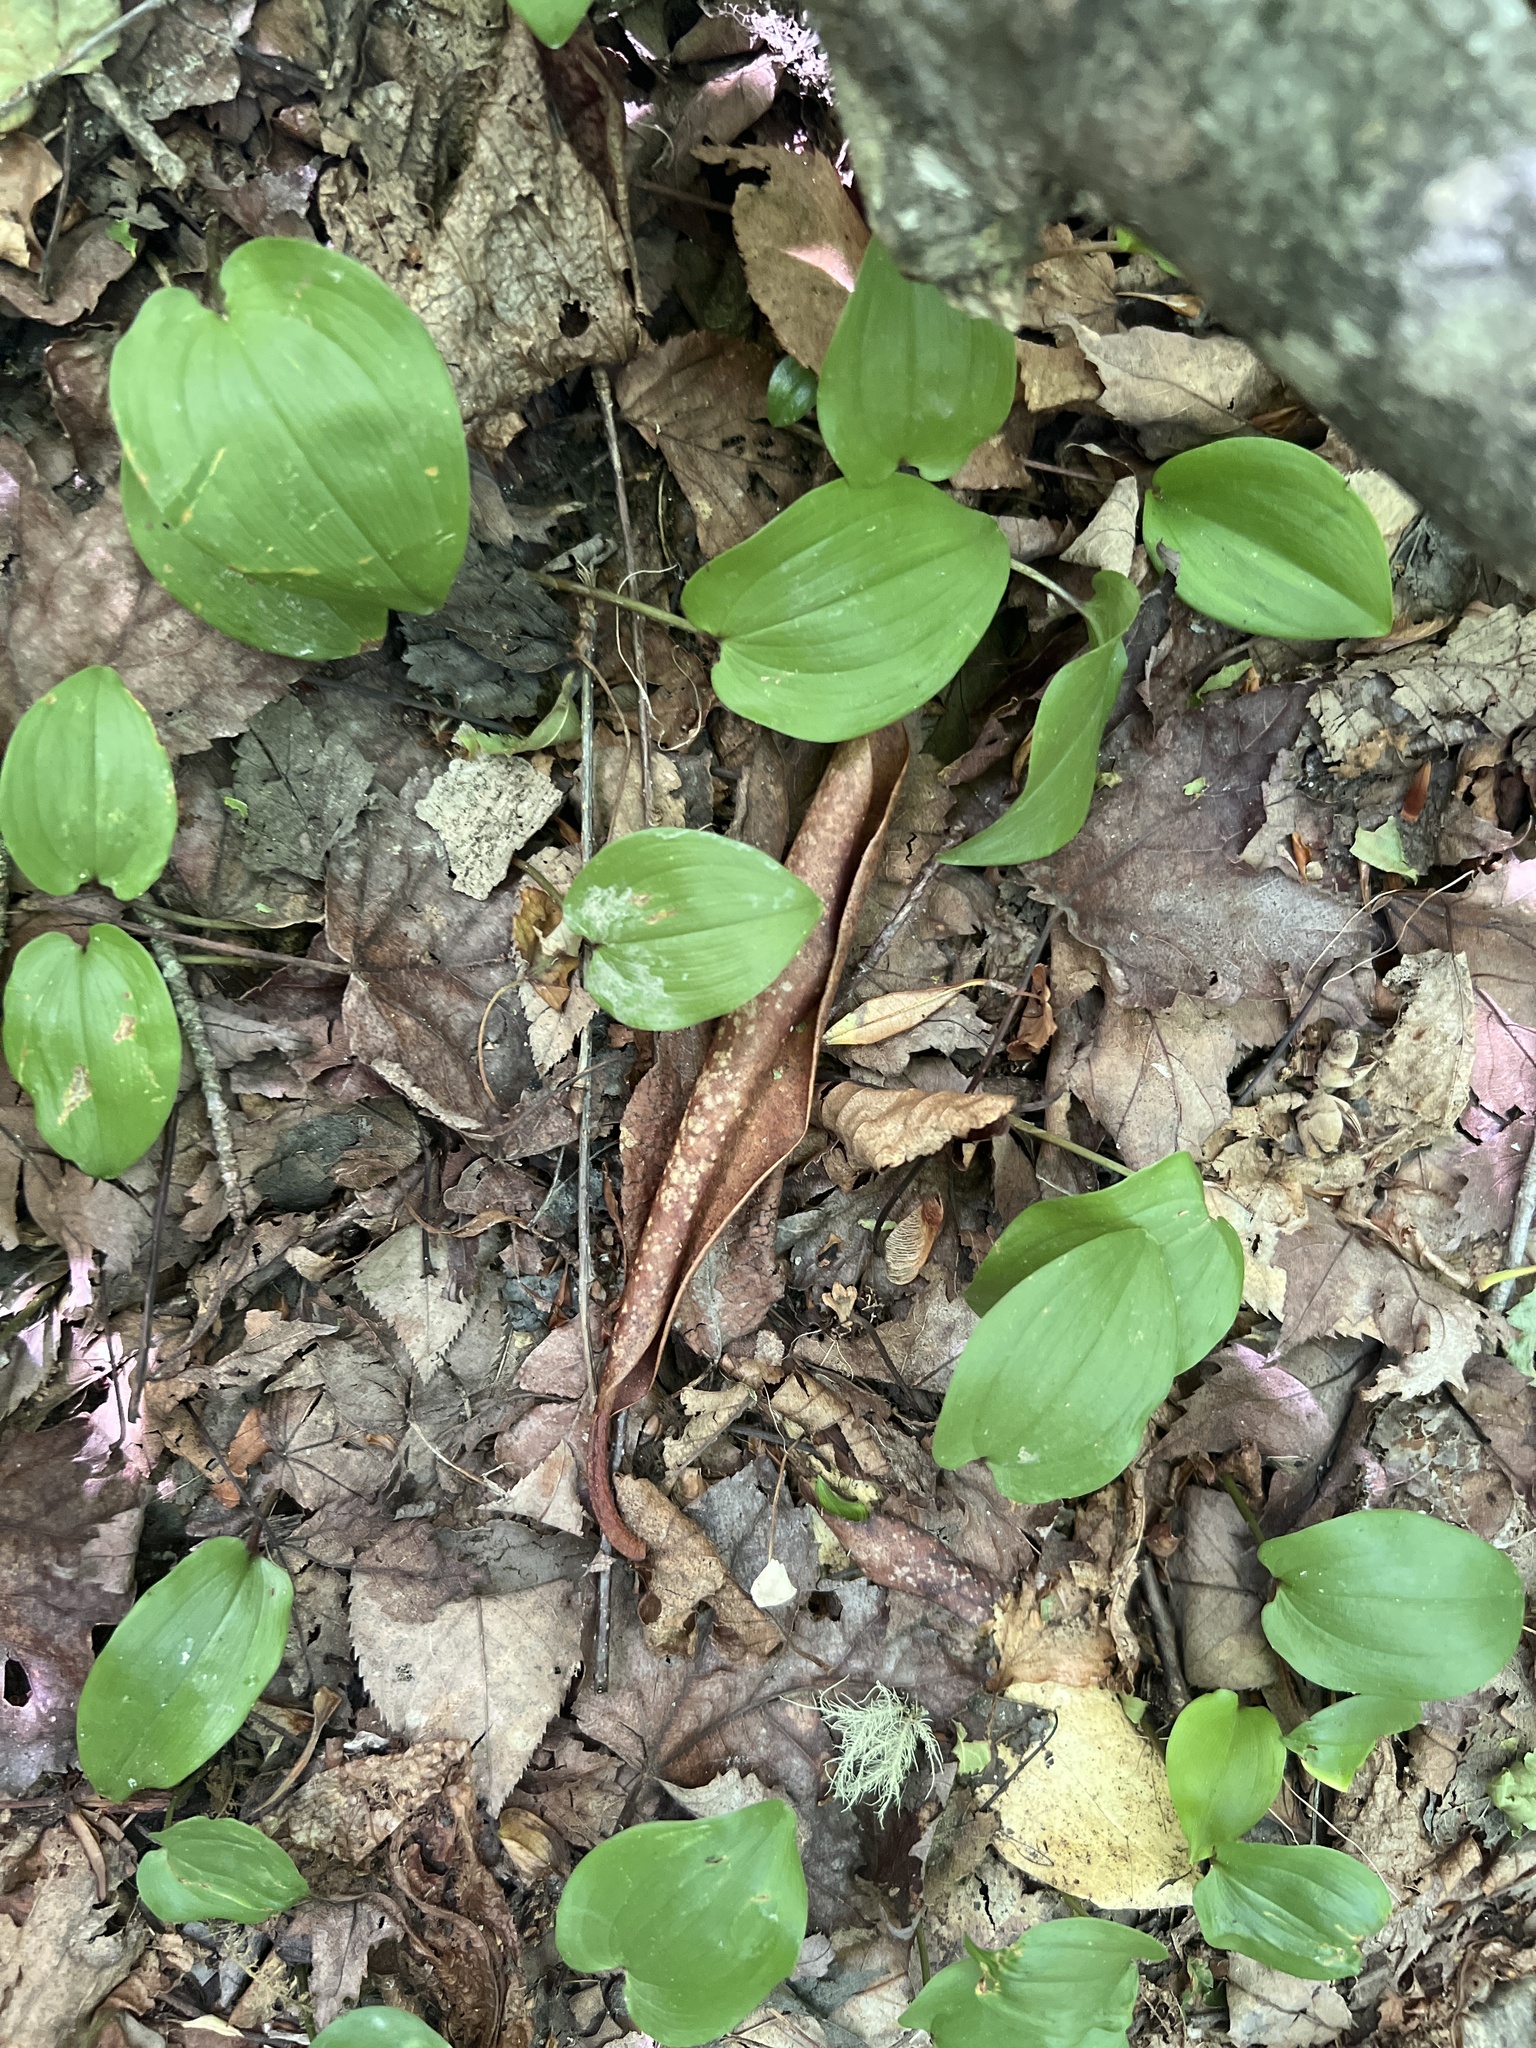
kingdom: Plantae
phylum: Tracheophyta
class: Liliopsida
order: Asparagales
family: Asparagaceae
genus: Maianthemum
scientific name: Maianthemum canadense
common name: False lily-of-the-valley
